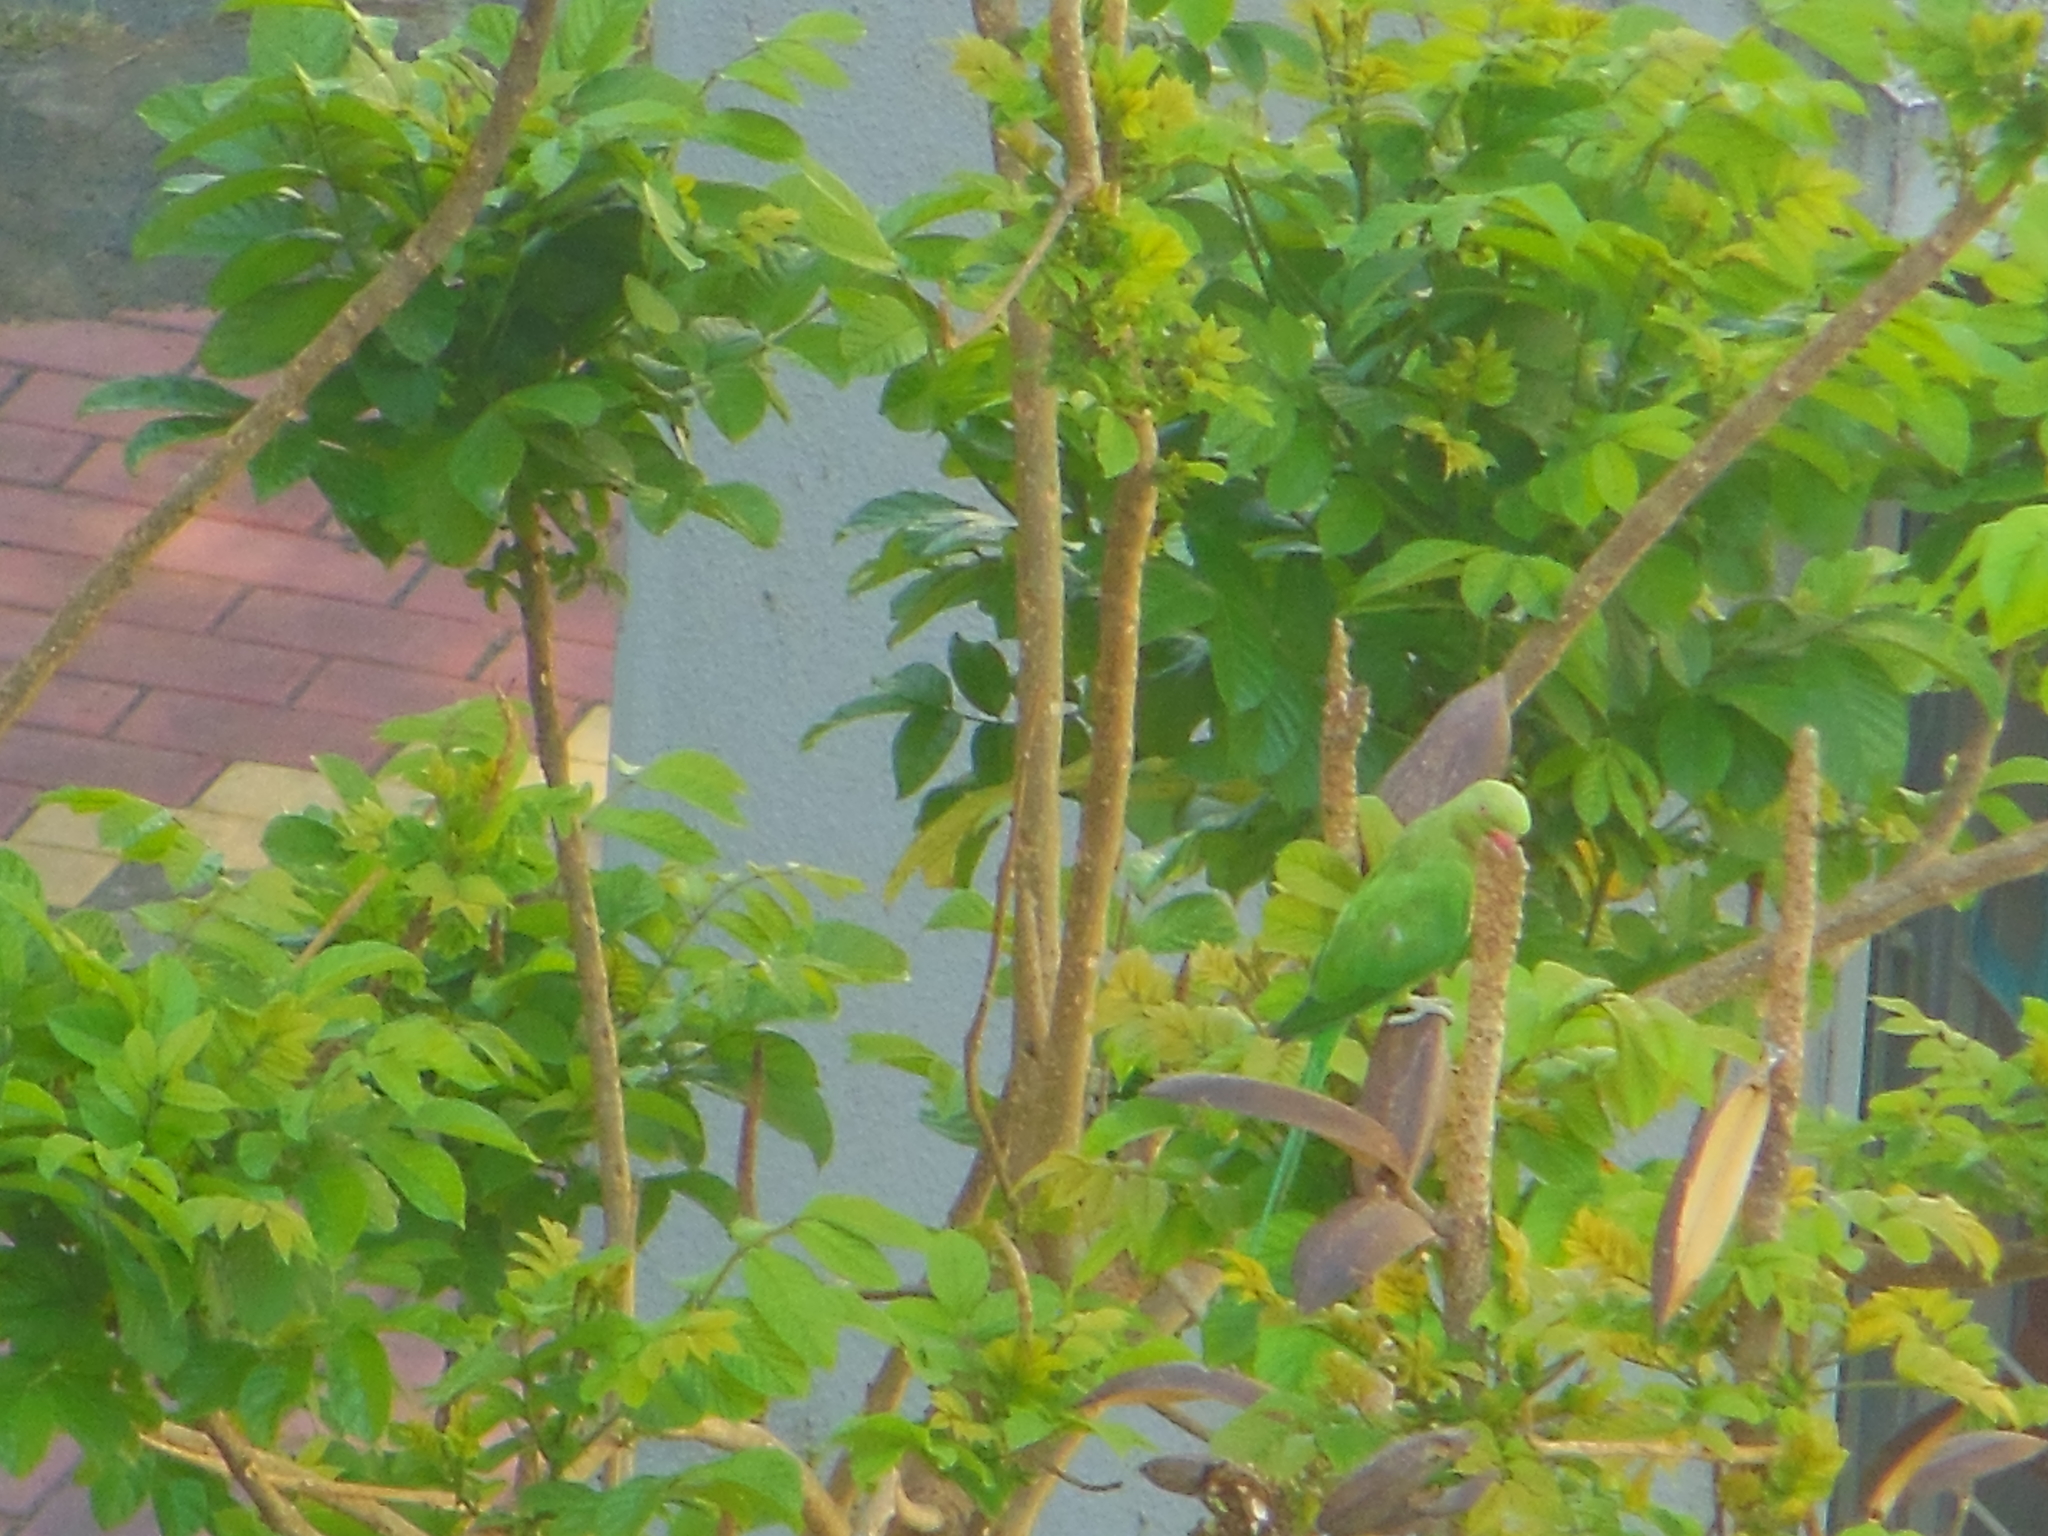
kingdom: Animalia
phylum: Chordata
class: Aves
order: Psittaciformes
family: Psittacidae
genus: Psittacula
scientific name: Psittacula krameri
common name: Rose-ringed parakeet
